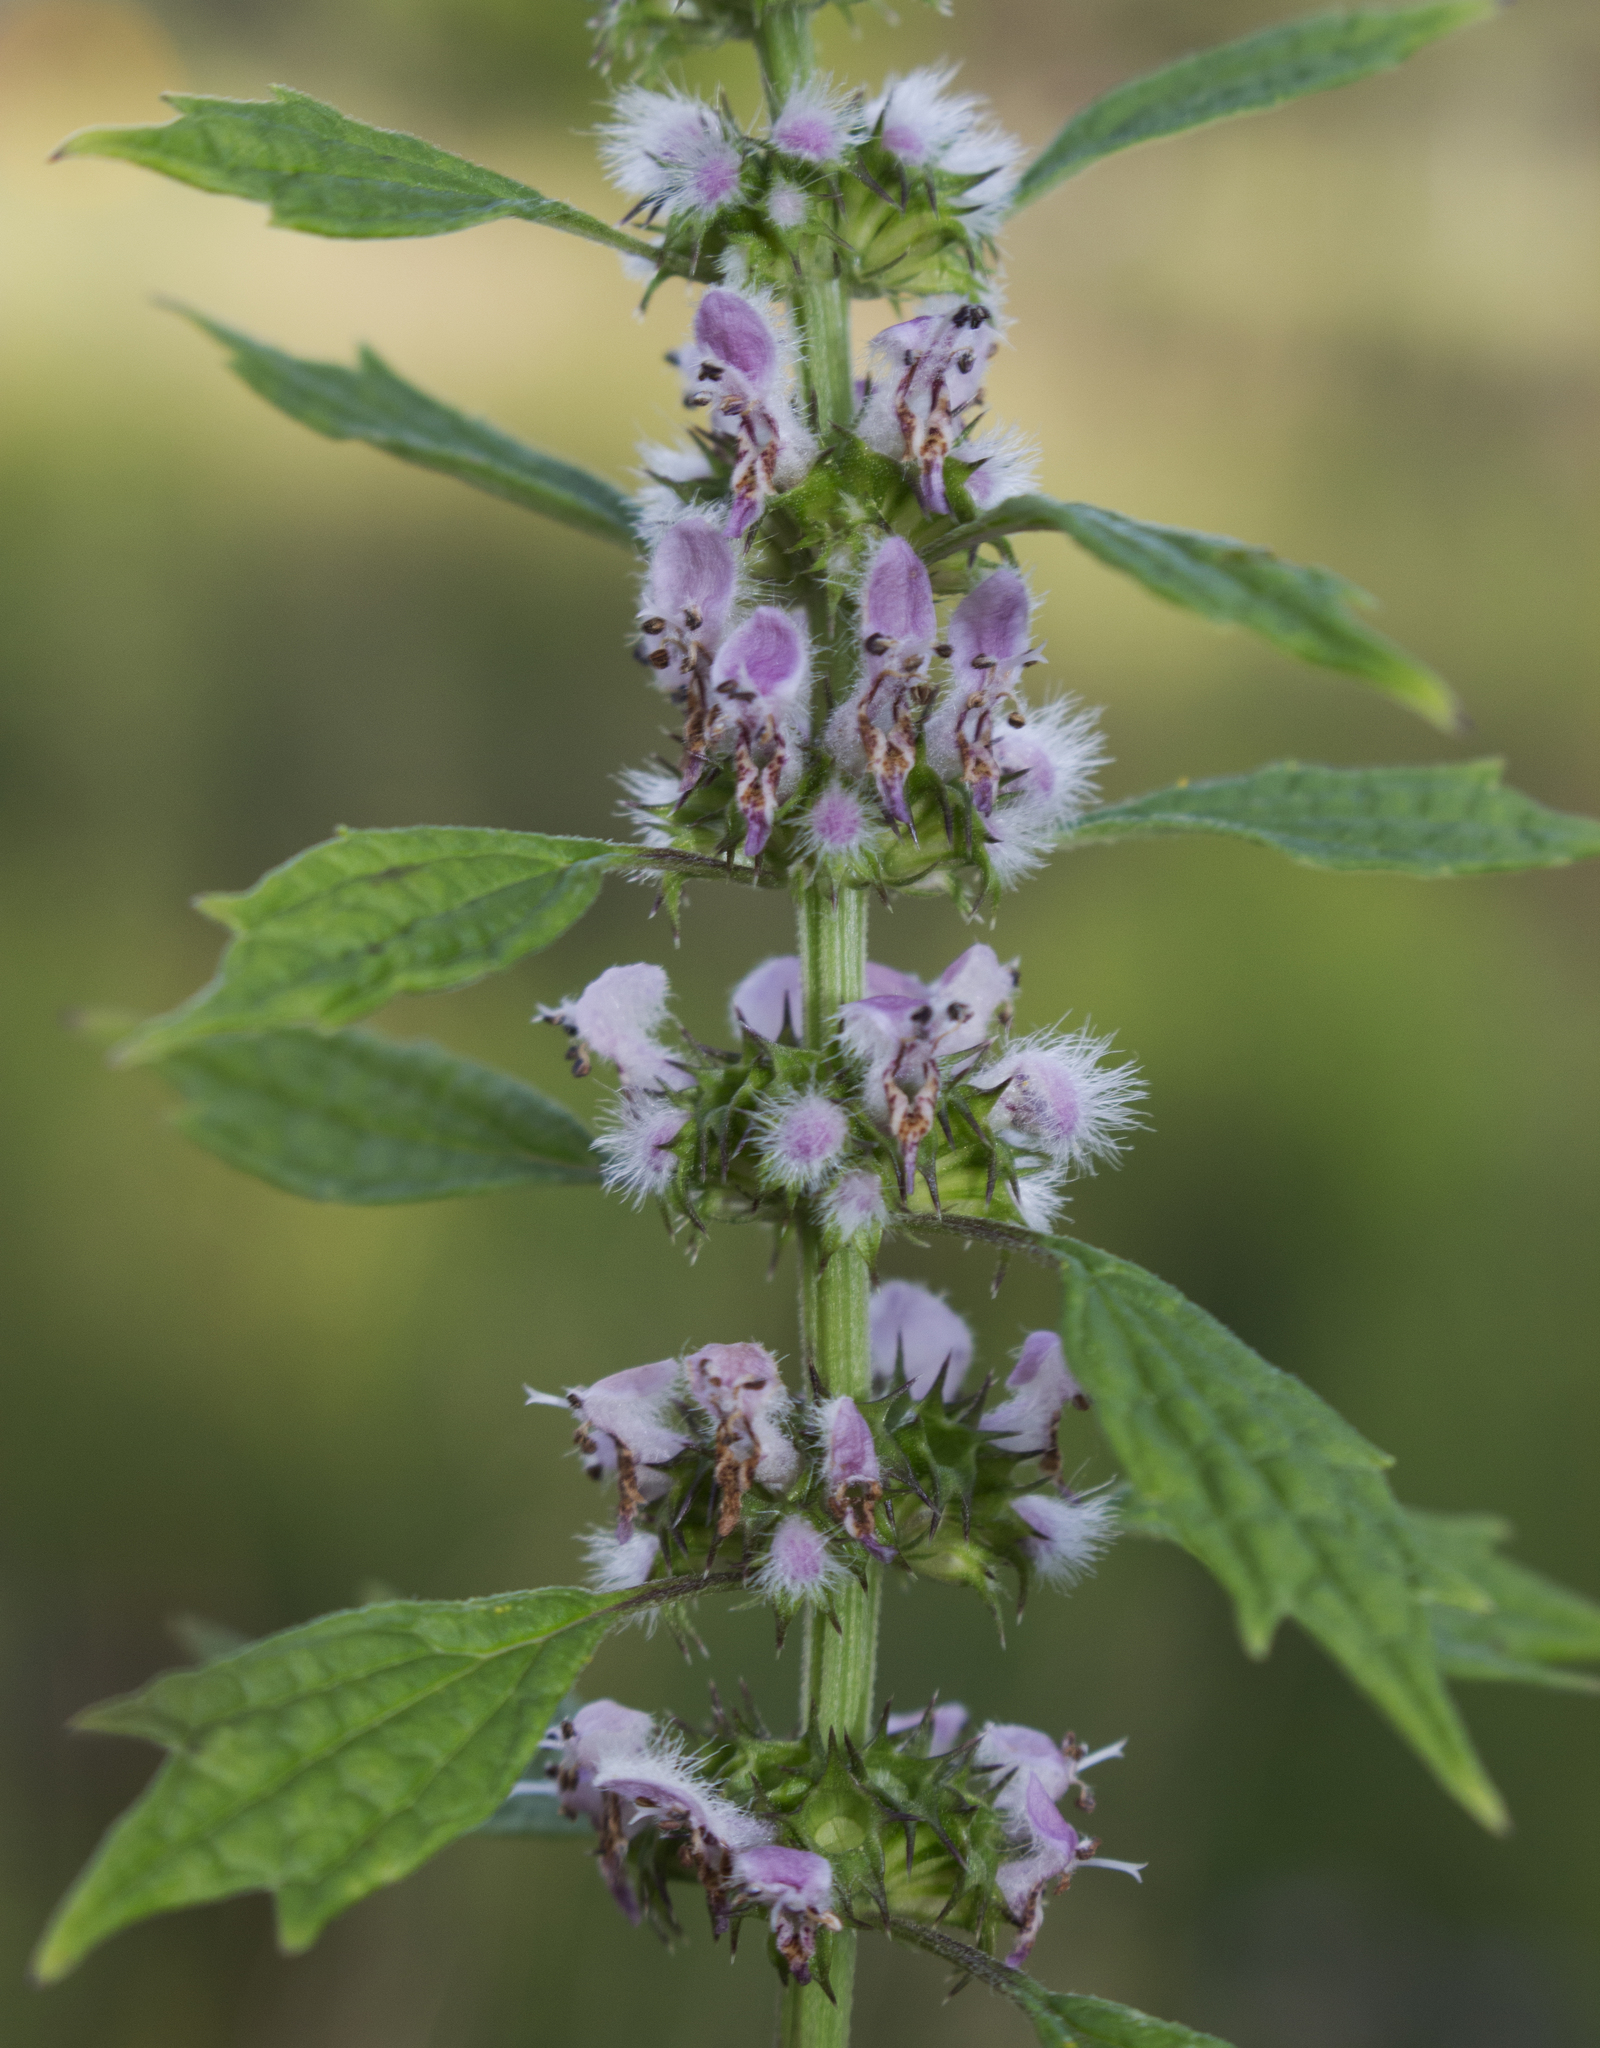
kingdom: Plantae
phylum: Tracheophyta
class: Magnoliopsida
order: Lamiales
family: Lamiaceae
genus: Leonurus
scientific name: Leonurus cardiaca
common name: Motherwort
